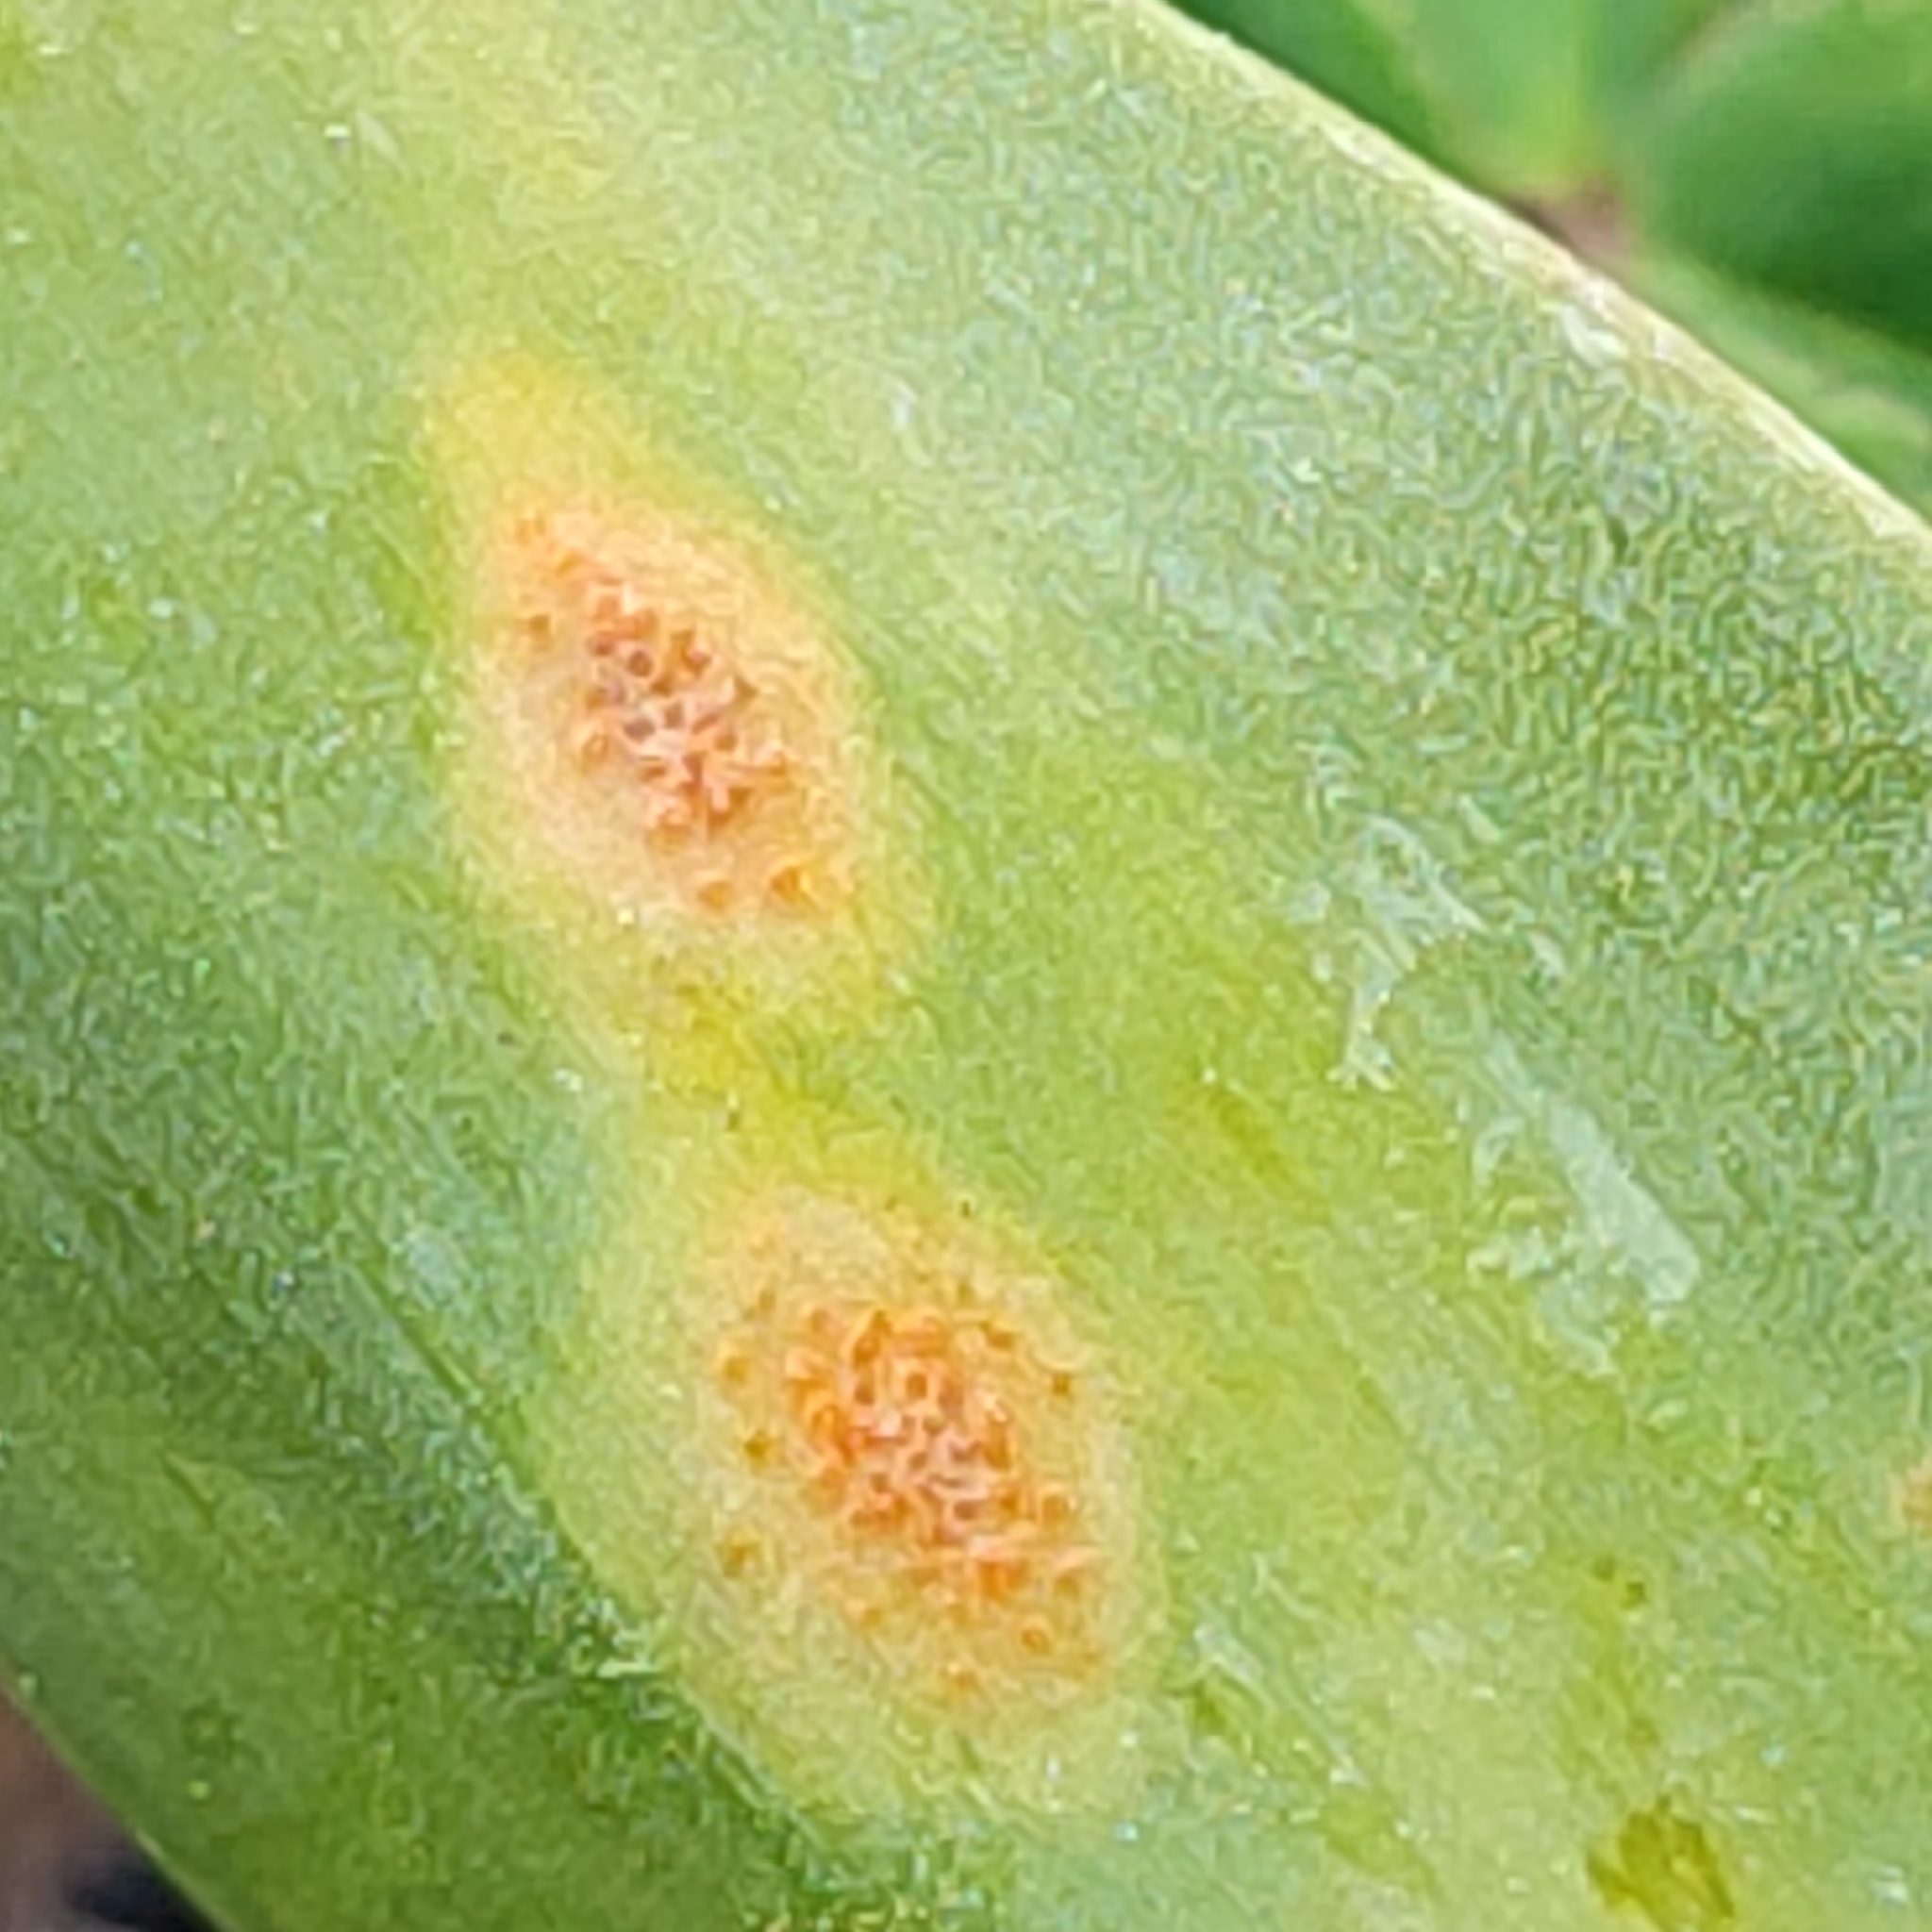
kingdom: Fungi
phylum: Basidiomycota
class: Pucciniomycetes
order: Pucciniales
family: Pucciniaceae
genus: Uromyces
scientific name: Uromyces erythronii
